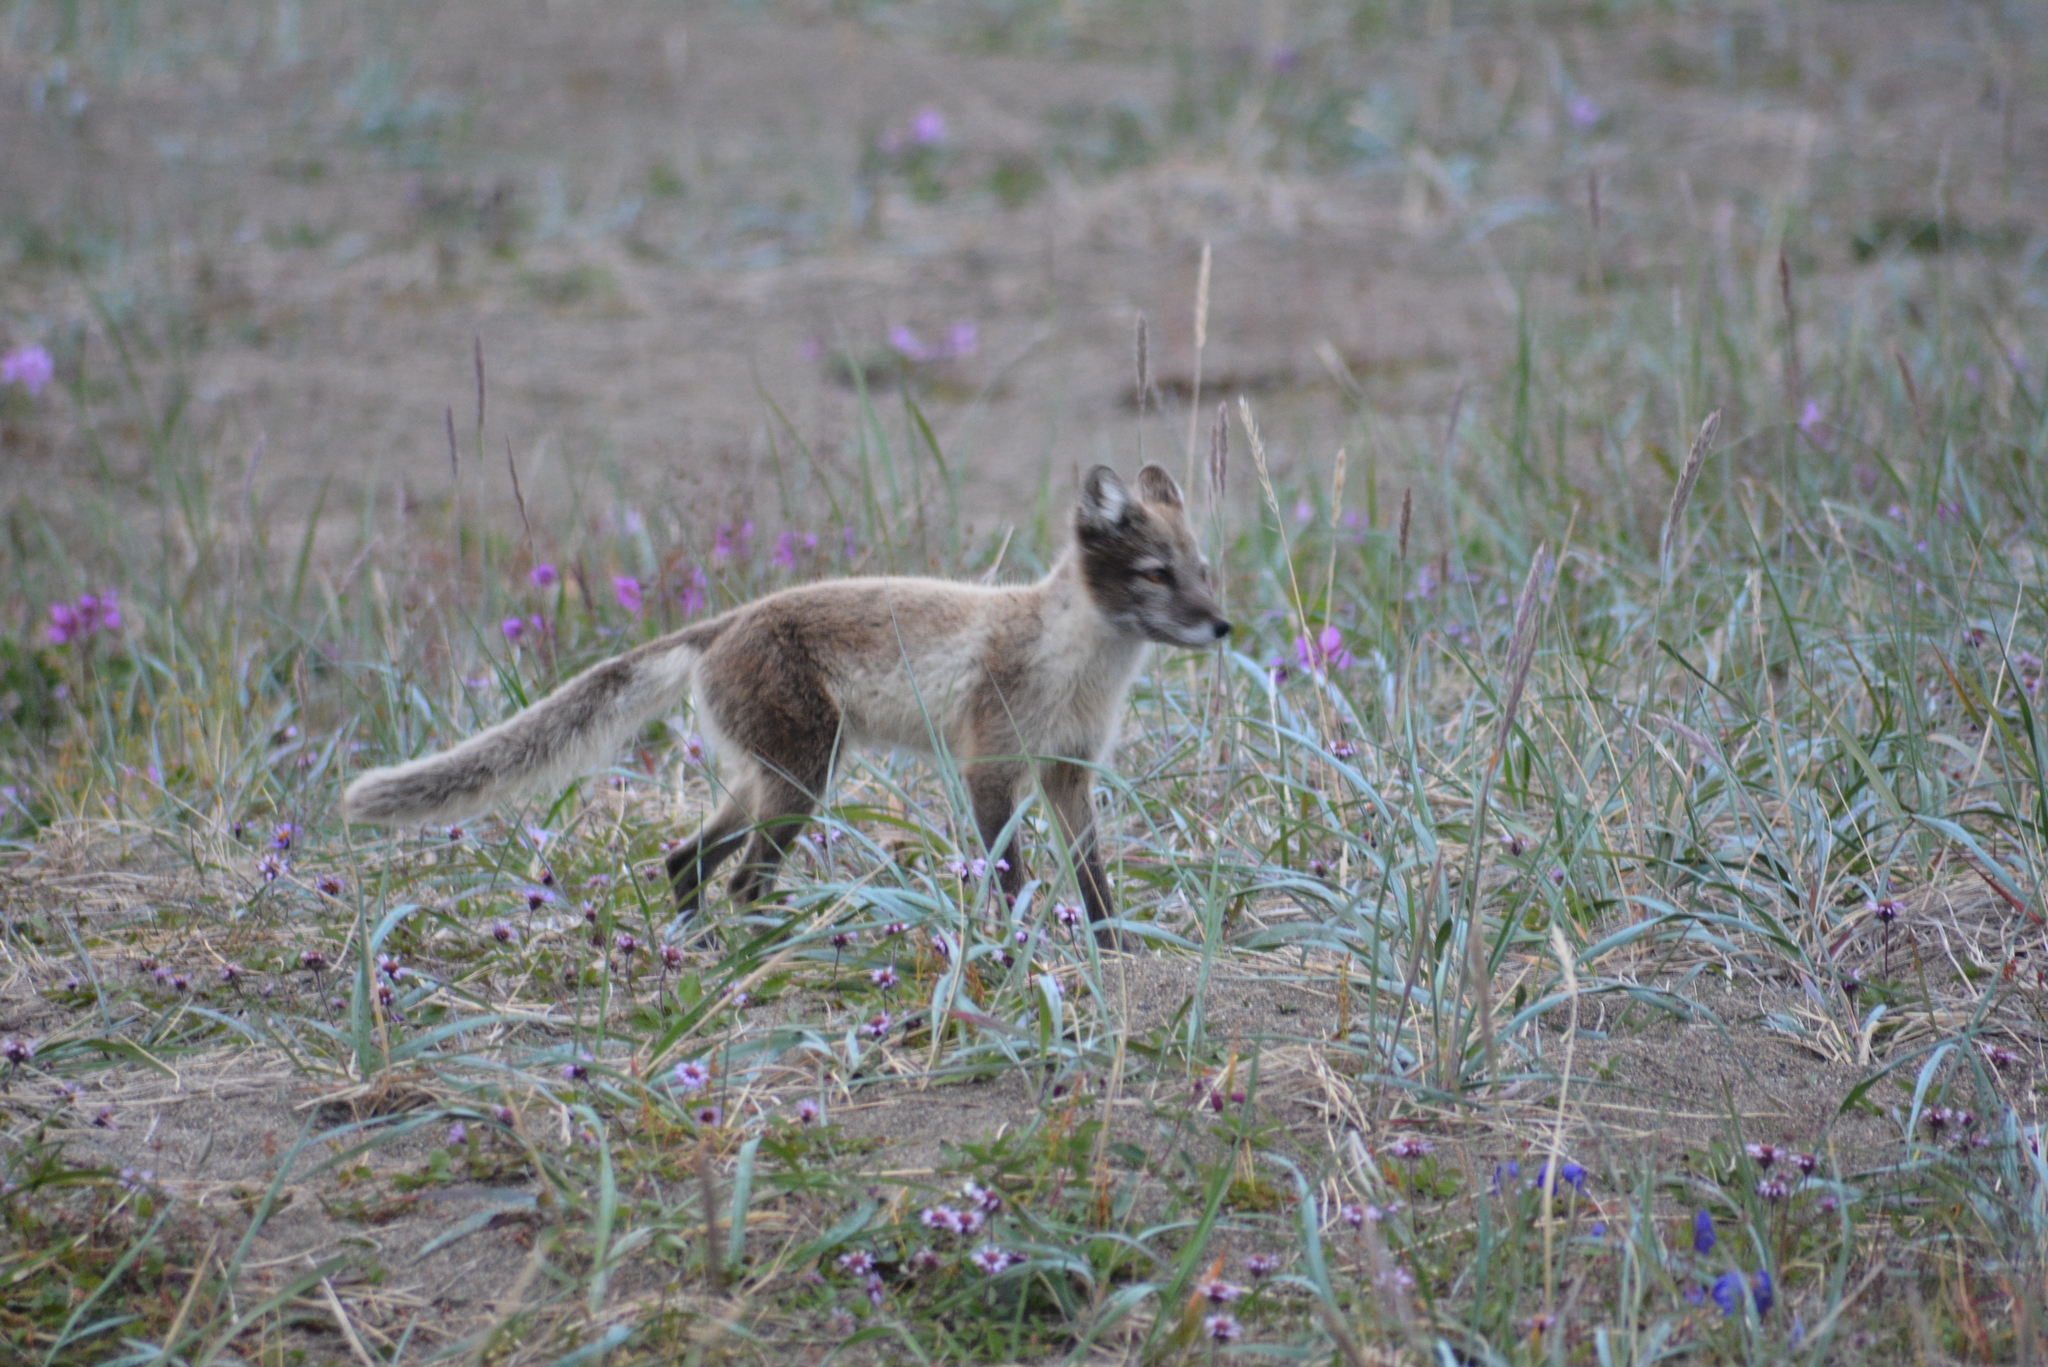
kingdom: Animalia
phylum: Chordata
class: Mammalia
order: Carnivora
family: Canidae
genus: Vulpes
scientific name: Vulpes lagopus
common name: Arctic fox
